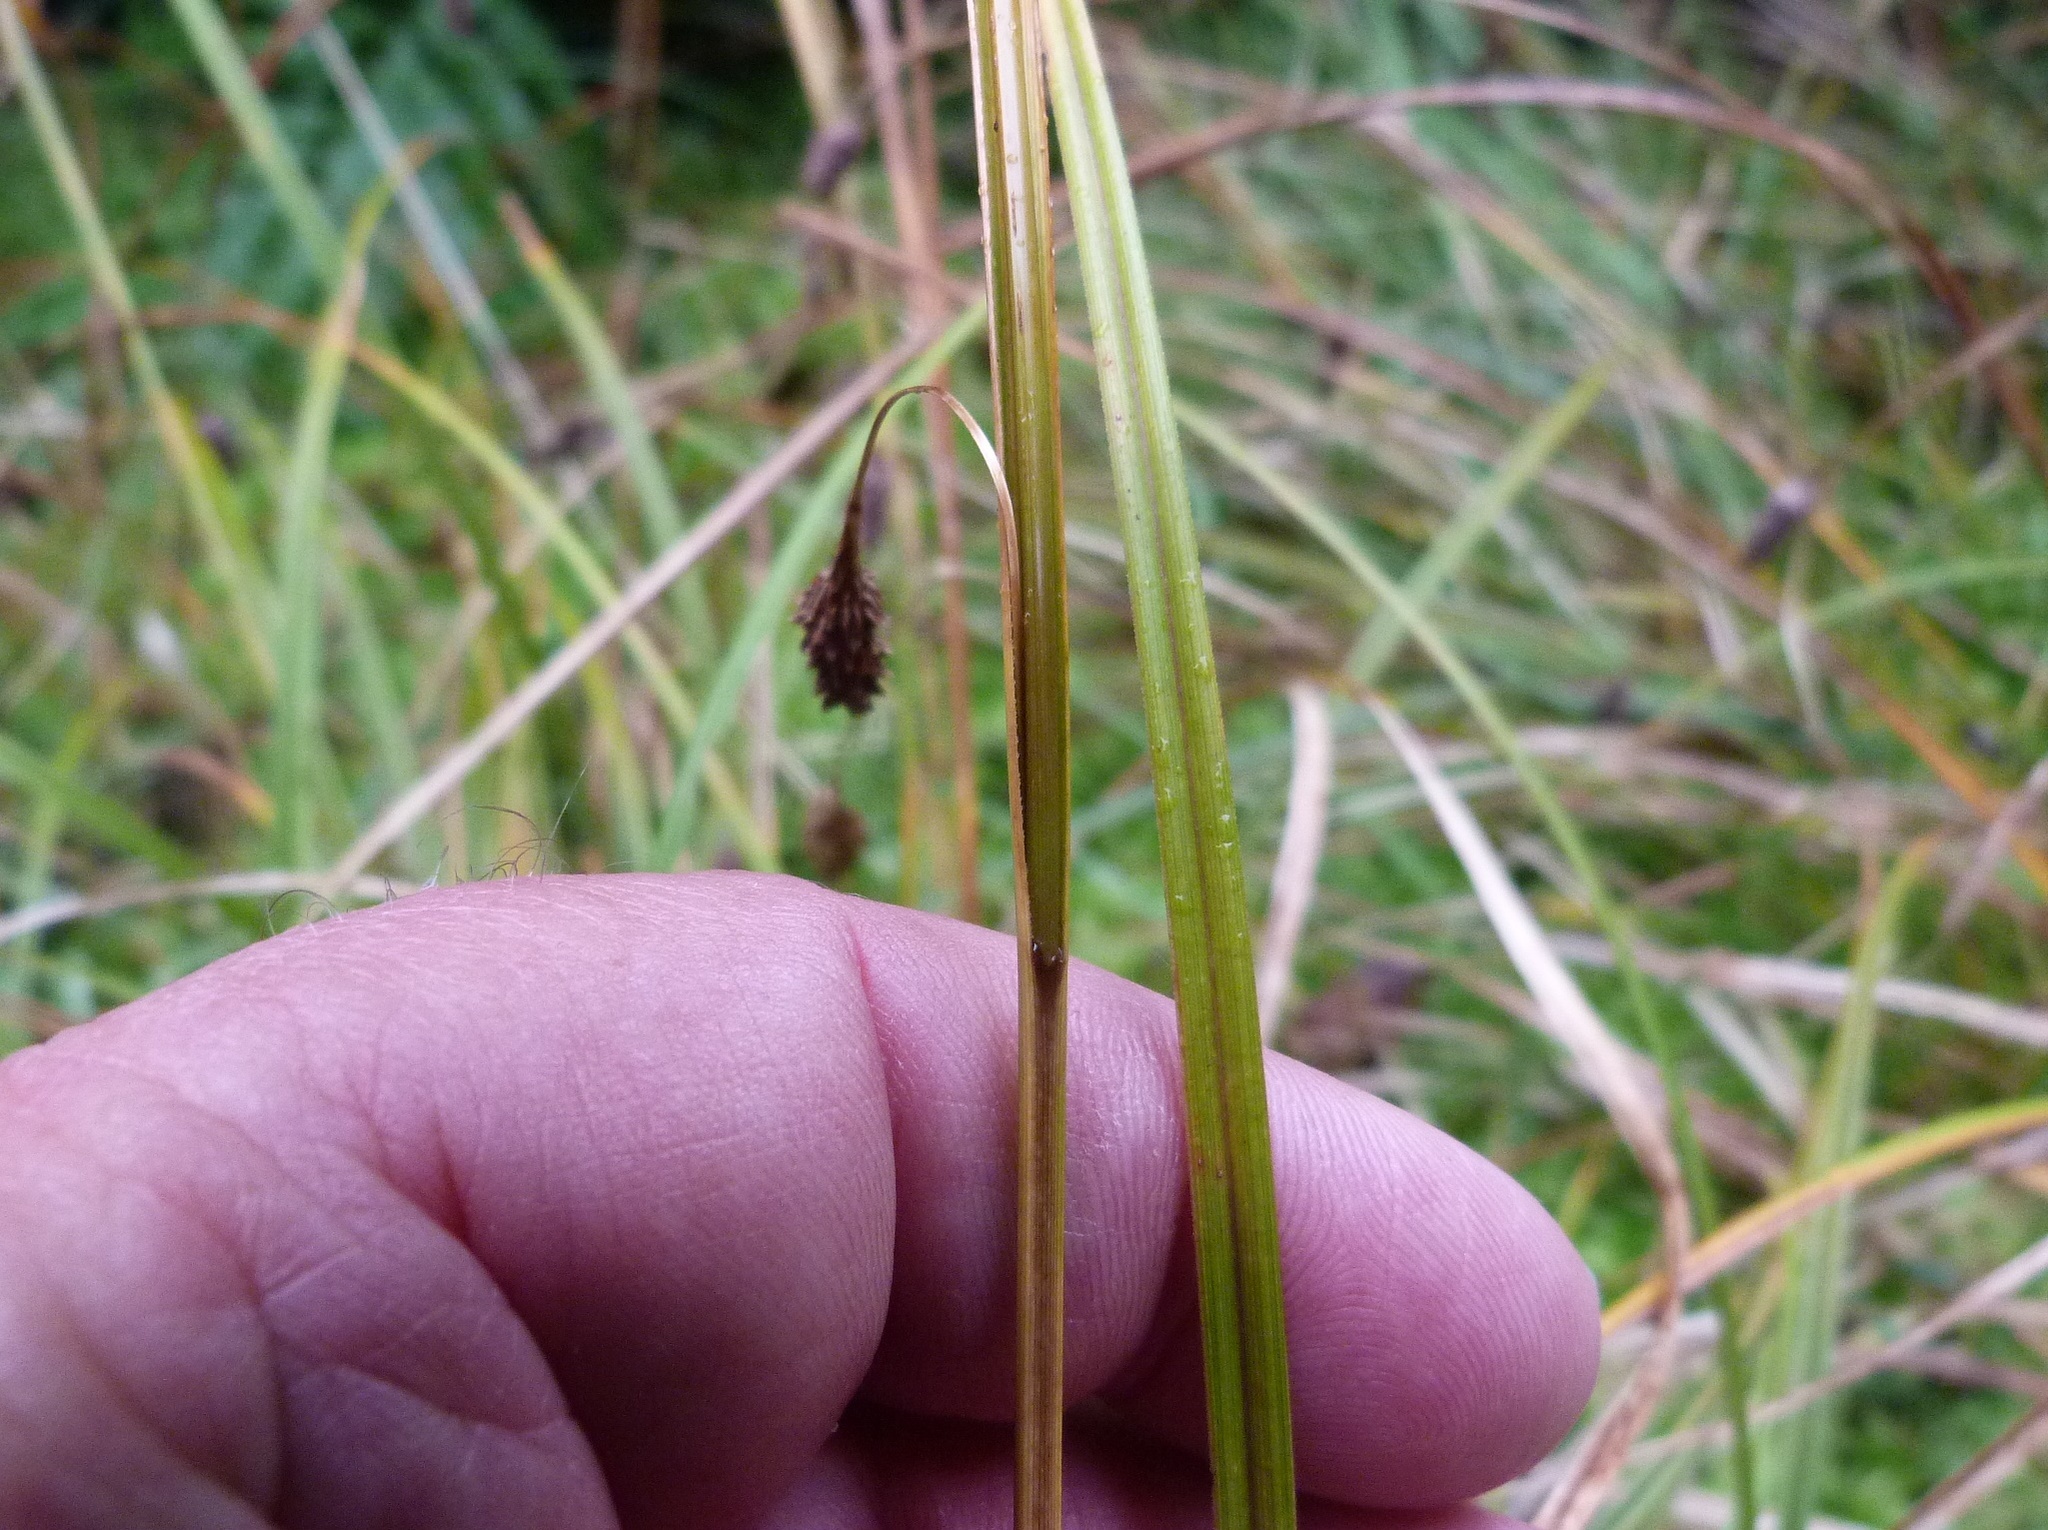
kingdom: Plantae
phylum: Tracheophyta
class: Liliopsida
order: Poales
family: Cyperaceae
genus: Carex
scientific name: Carex dissita
